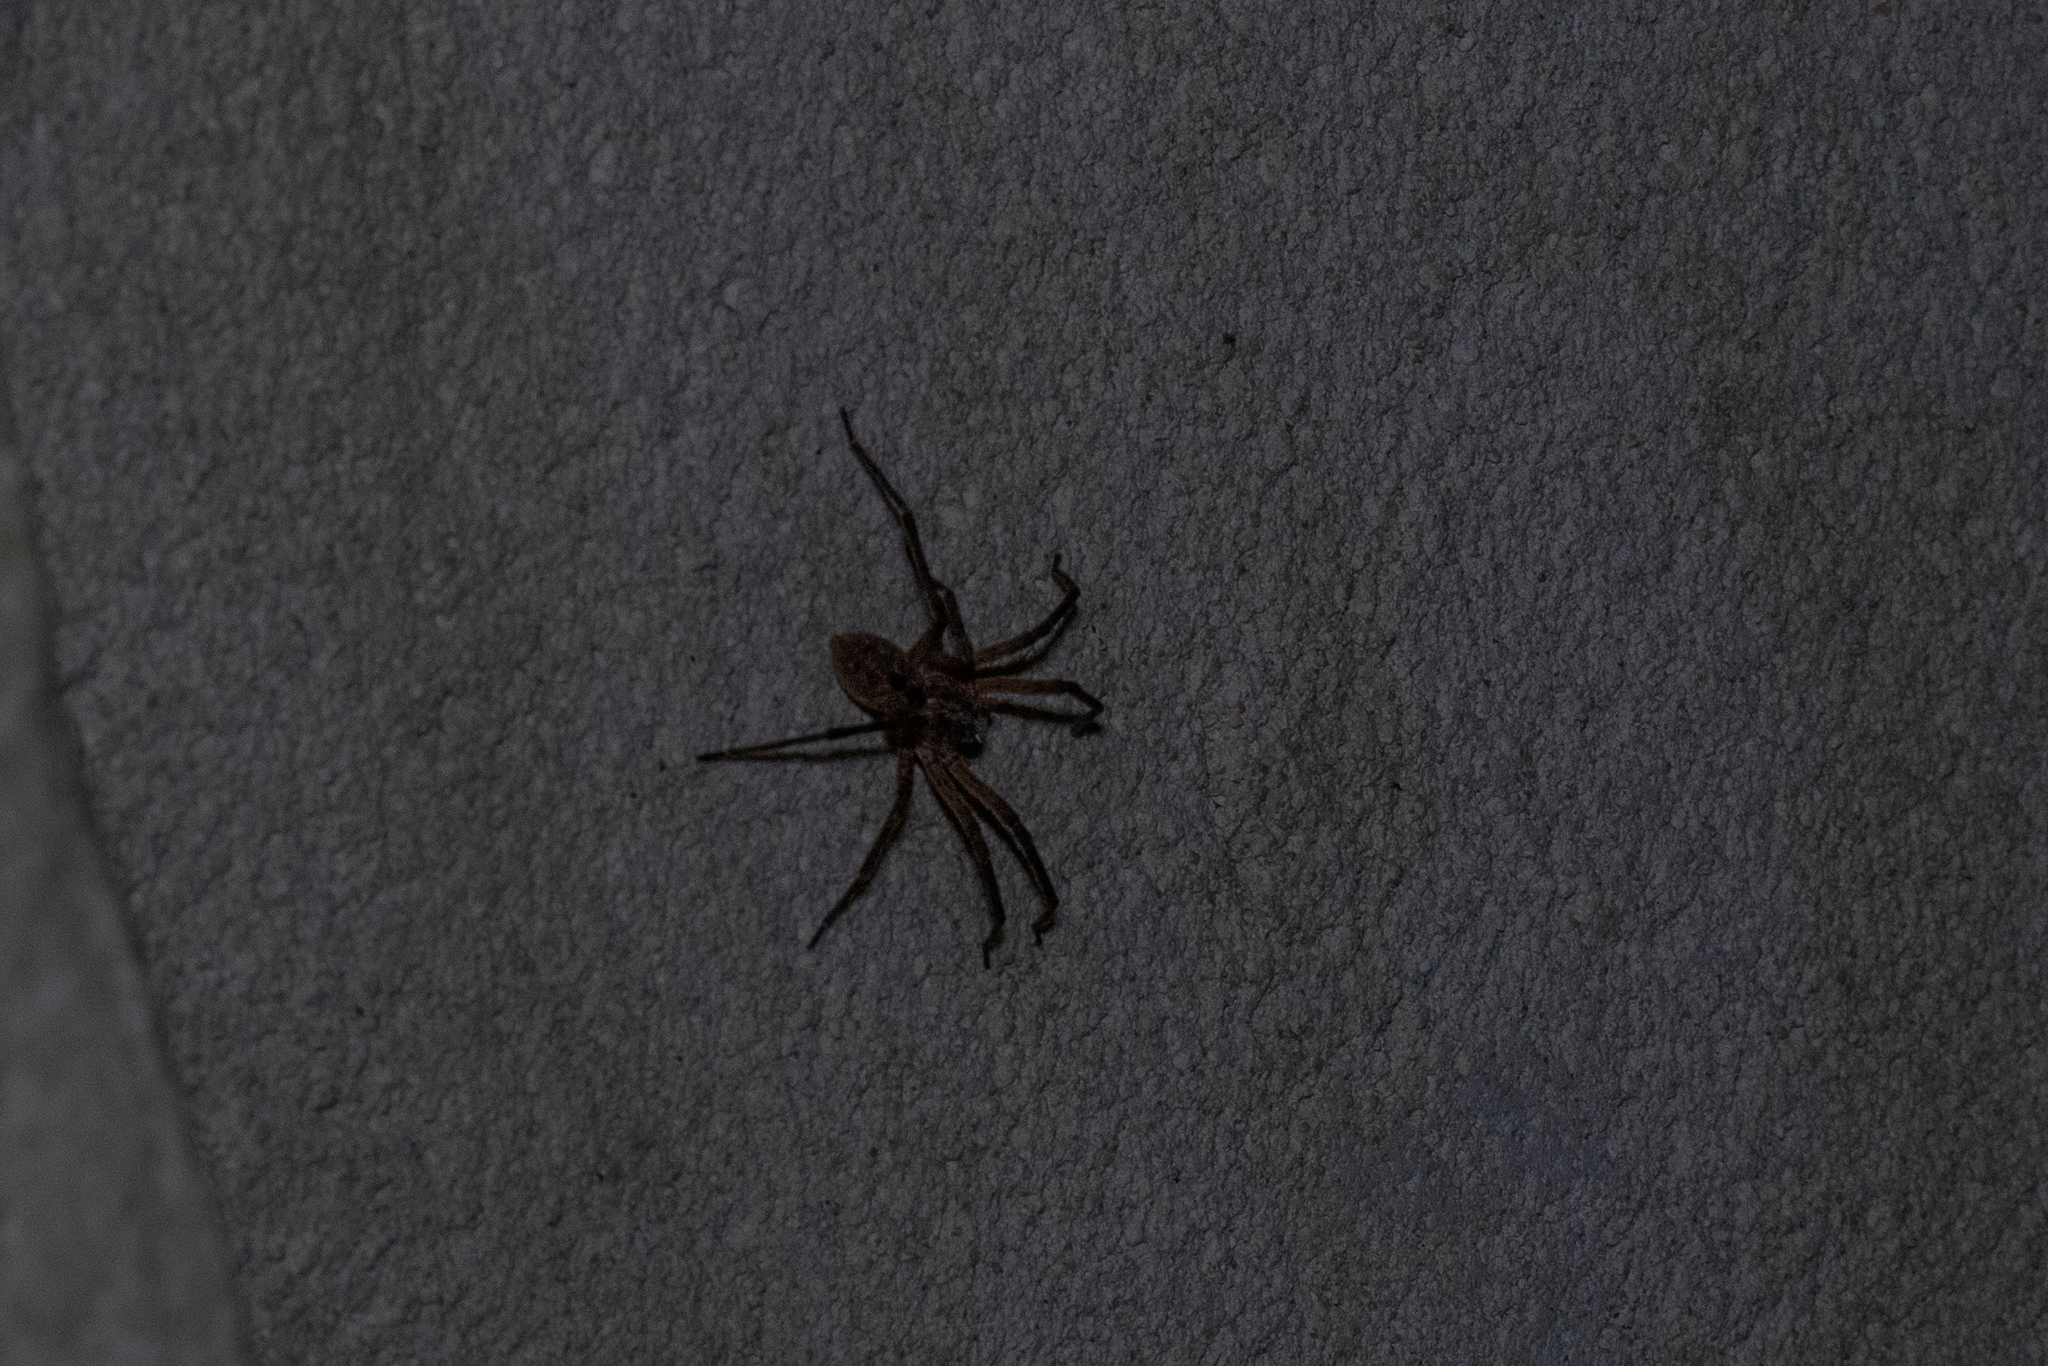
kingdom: Animalia
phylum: Arthropoda
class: Arachnida
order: Araneae
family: Zoropsidae
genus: Zoropsis
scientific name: Zoropsis spinimana
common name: Zoropsid spider
